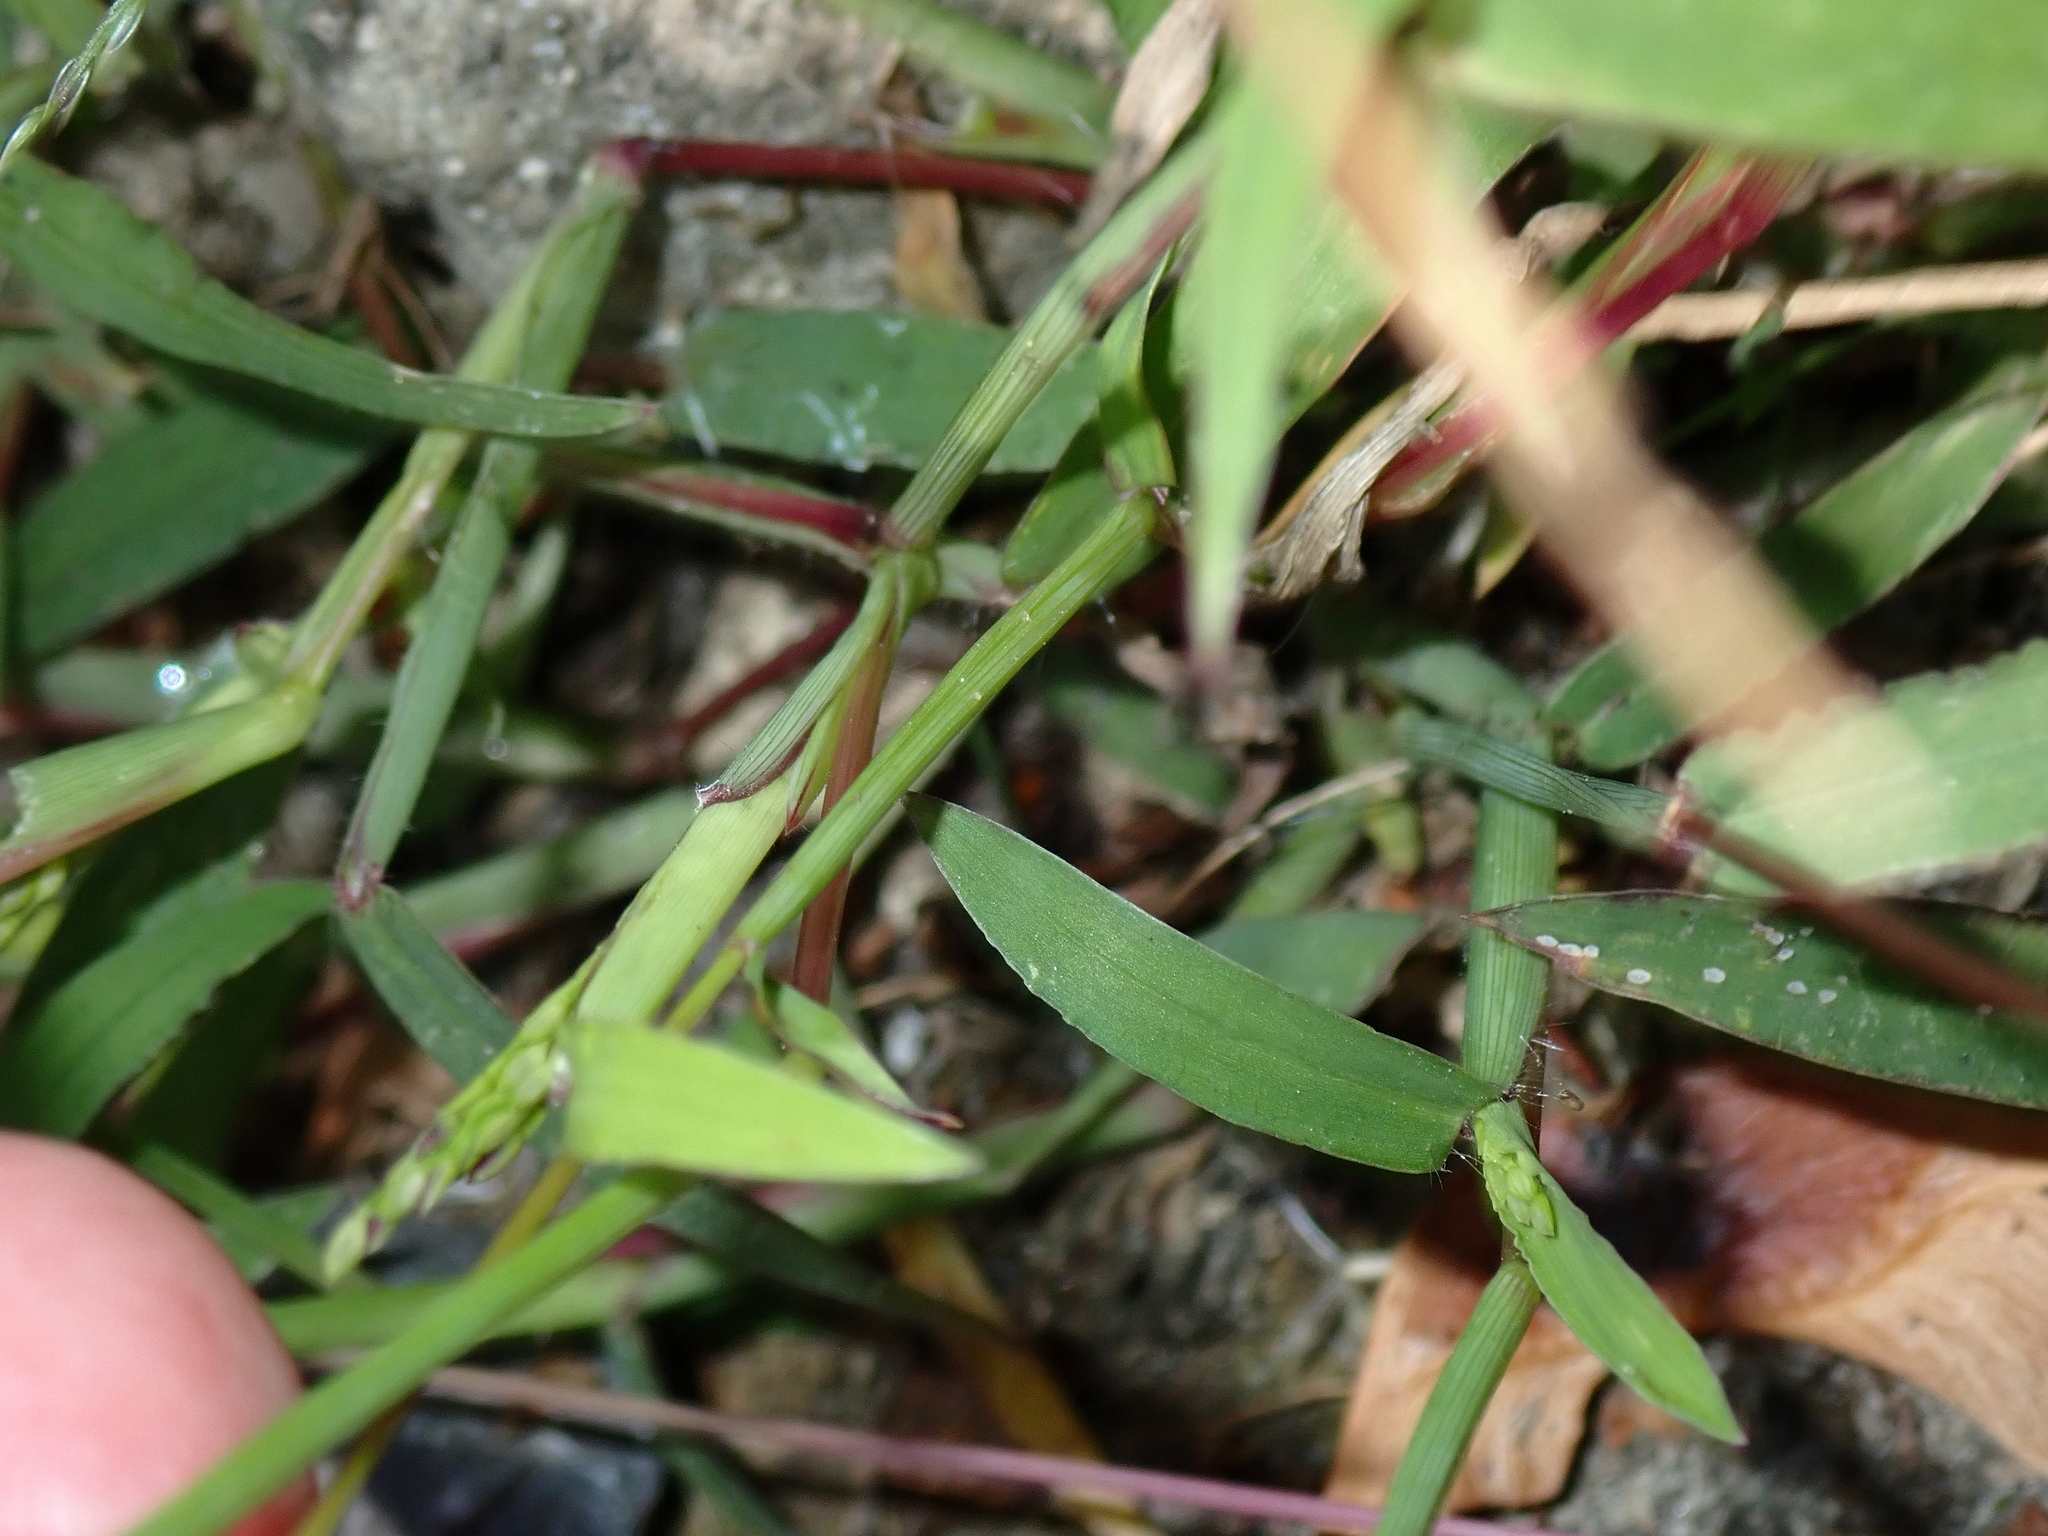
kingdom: Plantae
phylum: Tracheophyta
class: Liliopsida
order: Poales
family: Poaceae
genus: Digitaria
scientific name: Digitaria sanguinalis
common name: Hairy crabgrass
